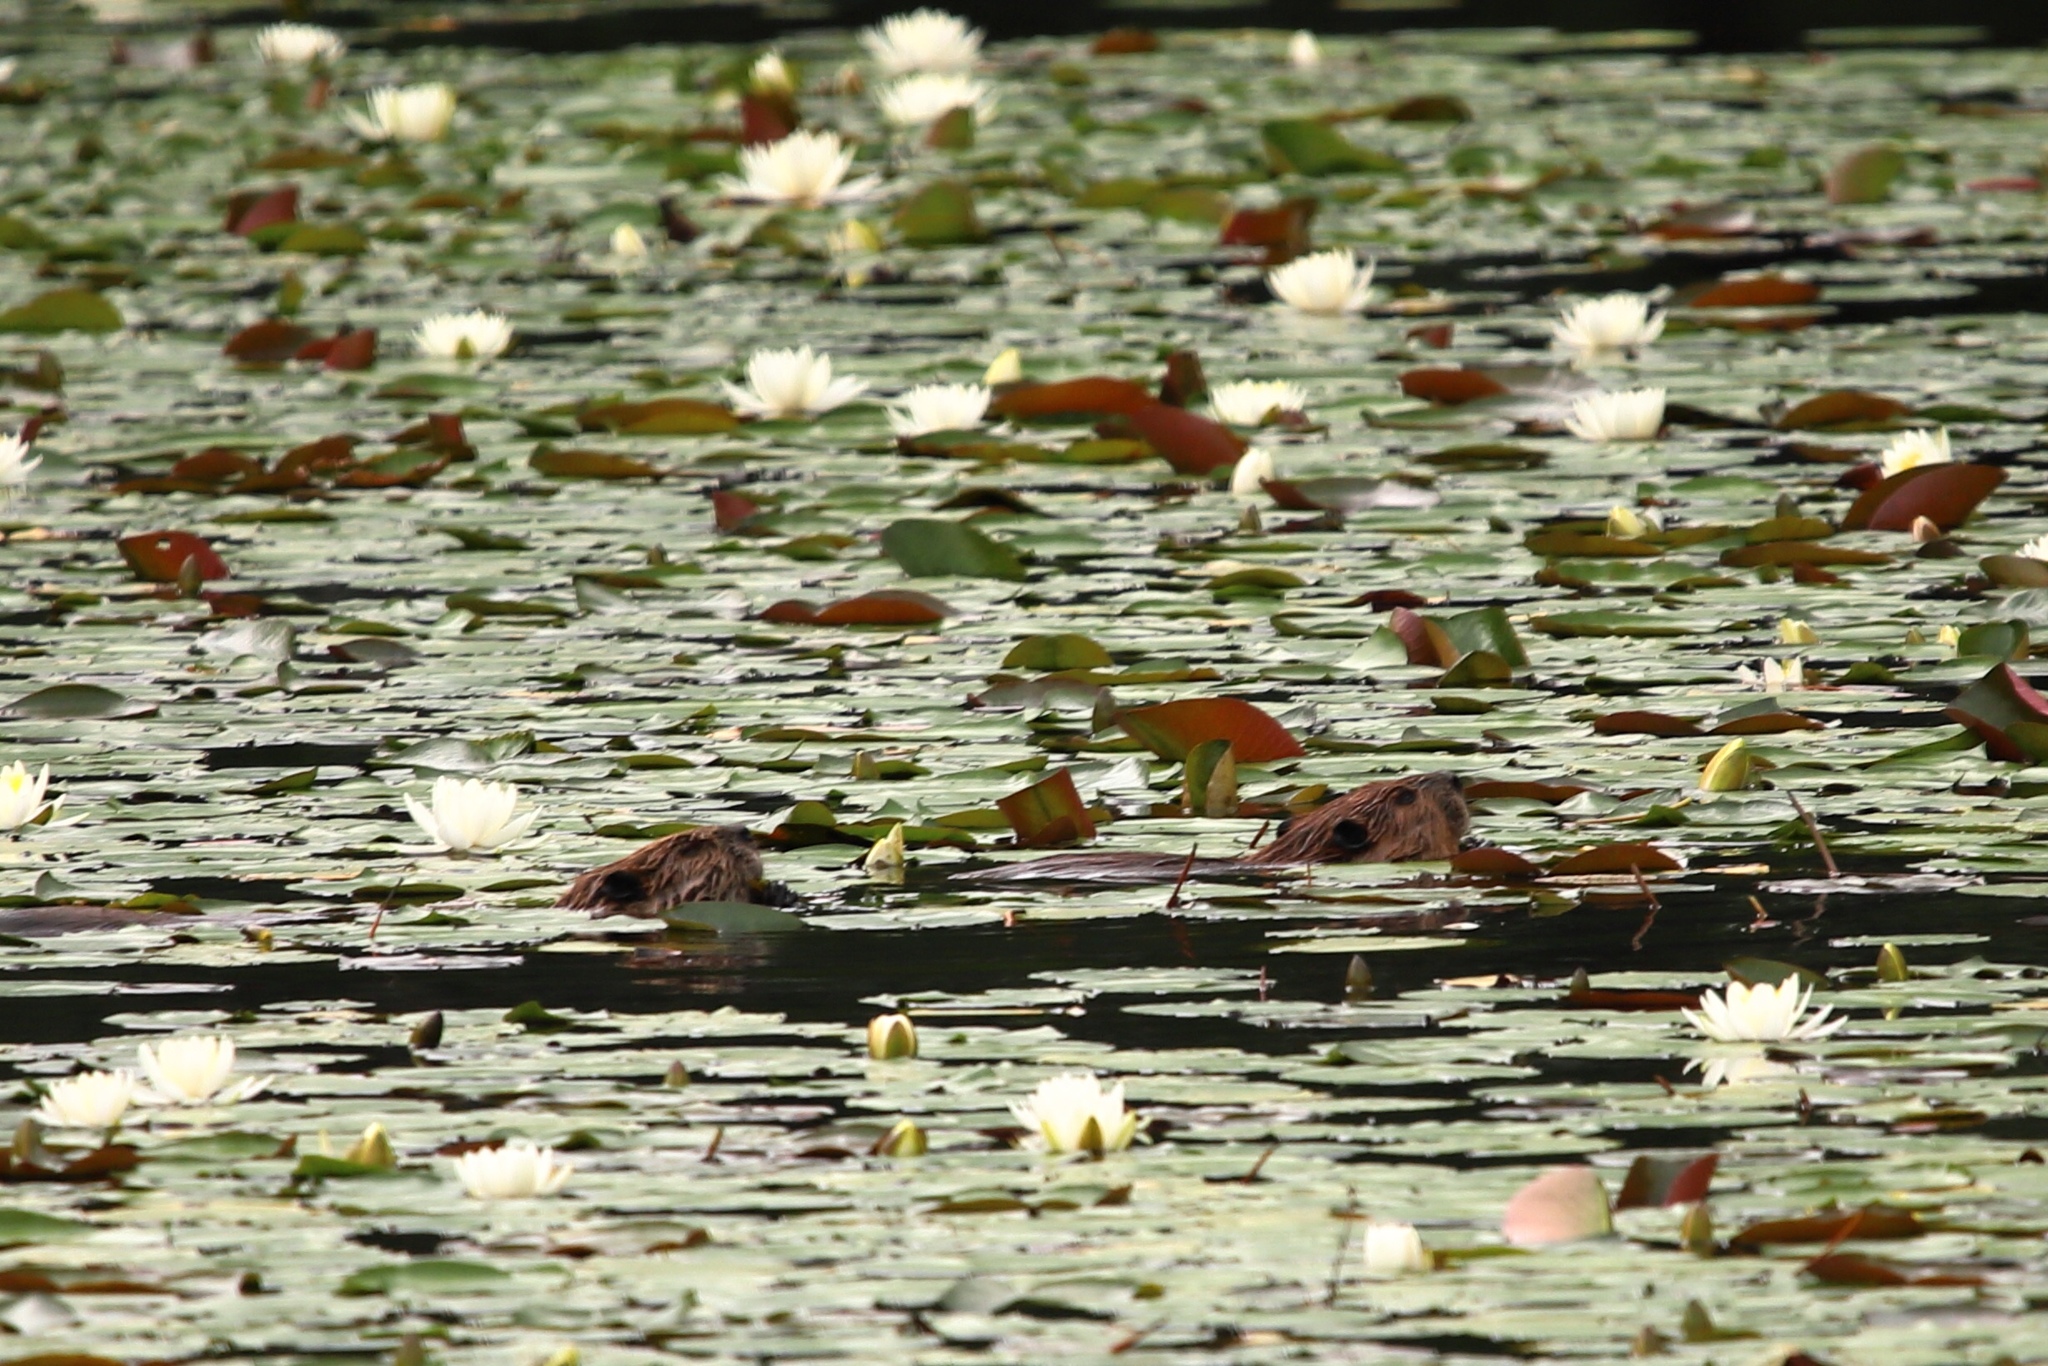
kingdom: Animalia
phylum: Chordata
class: Mammalia
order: Rodentia
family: Castoridae
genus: Castor
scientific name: Castor canadensis
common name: American beaver
